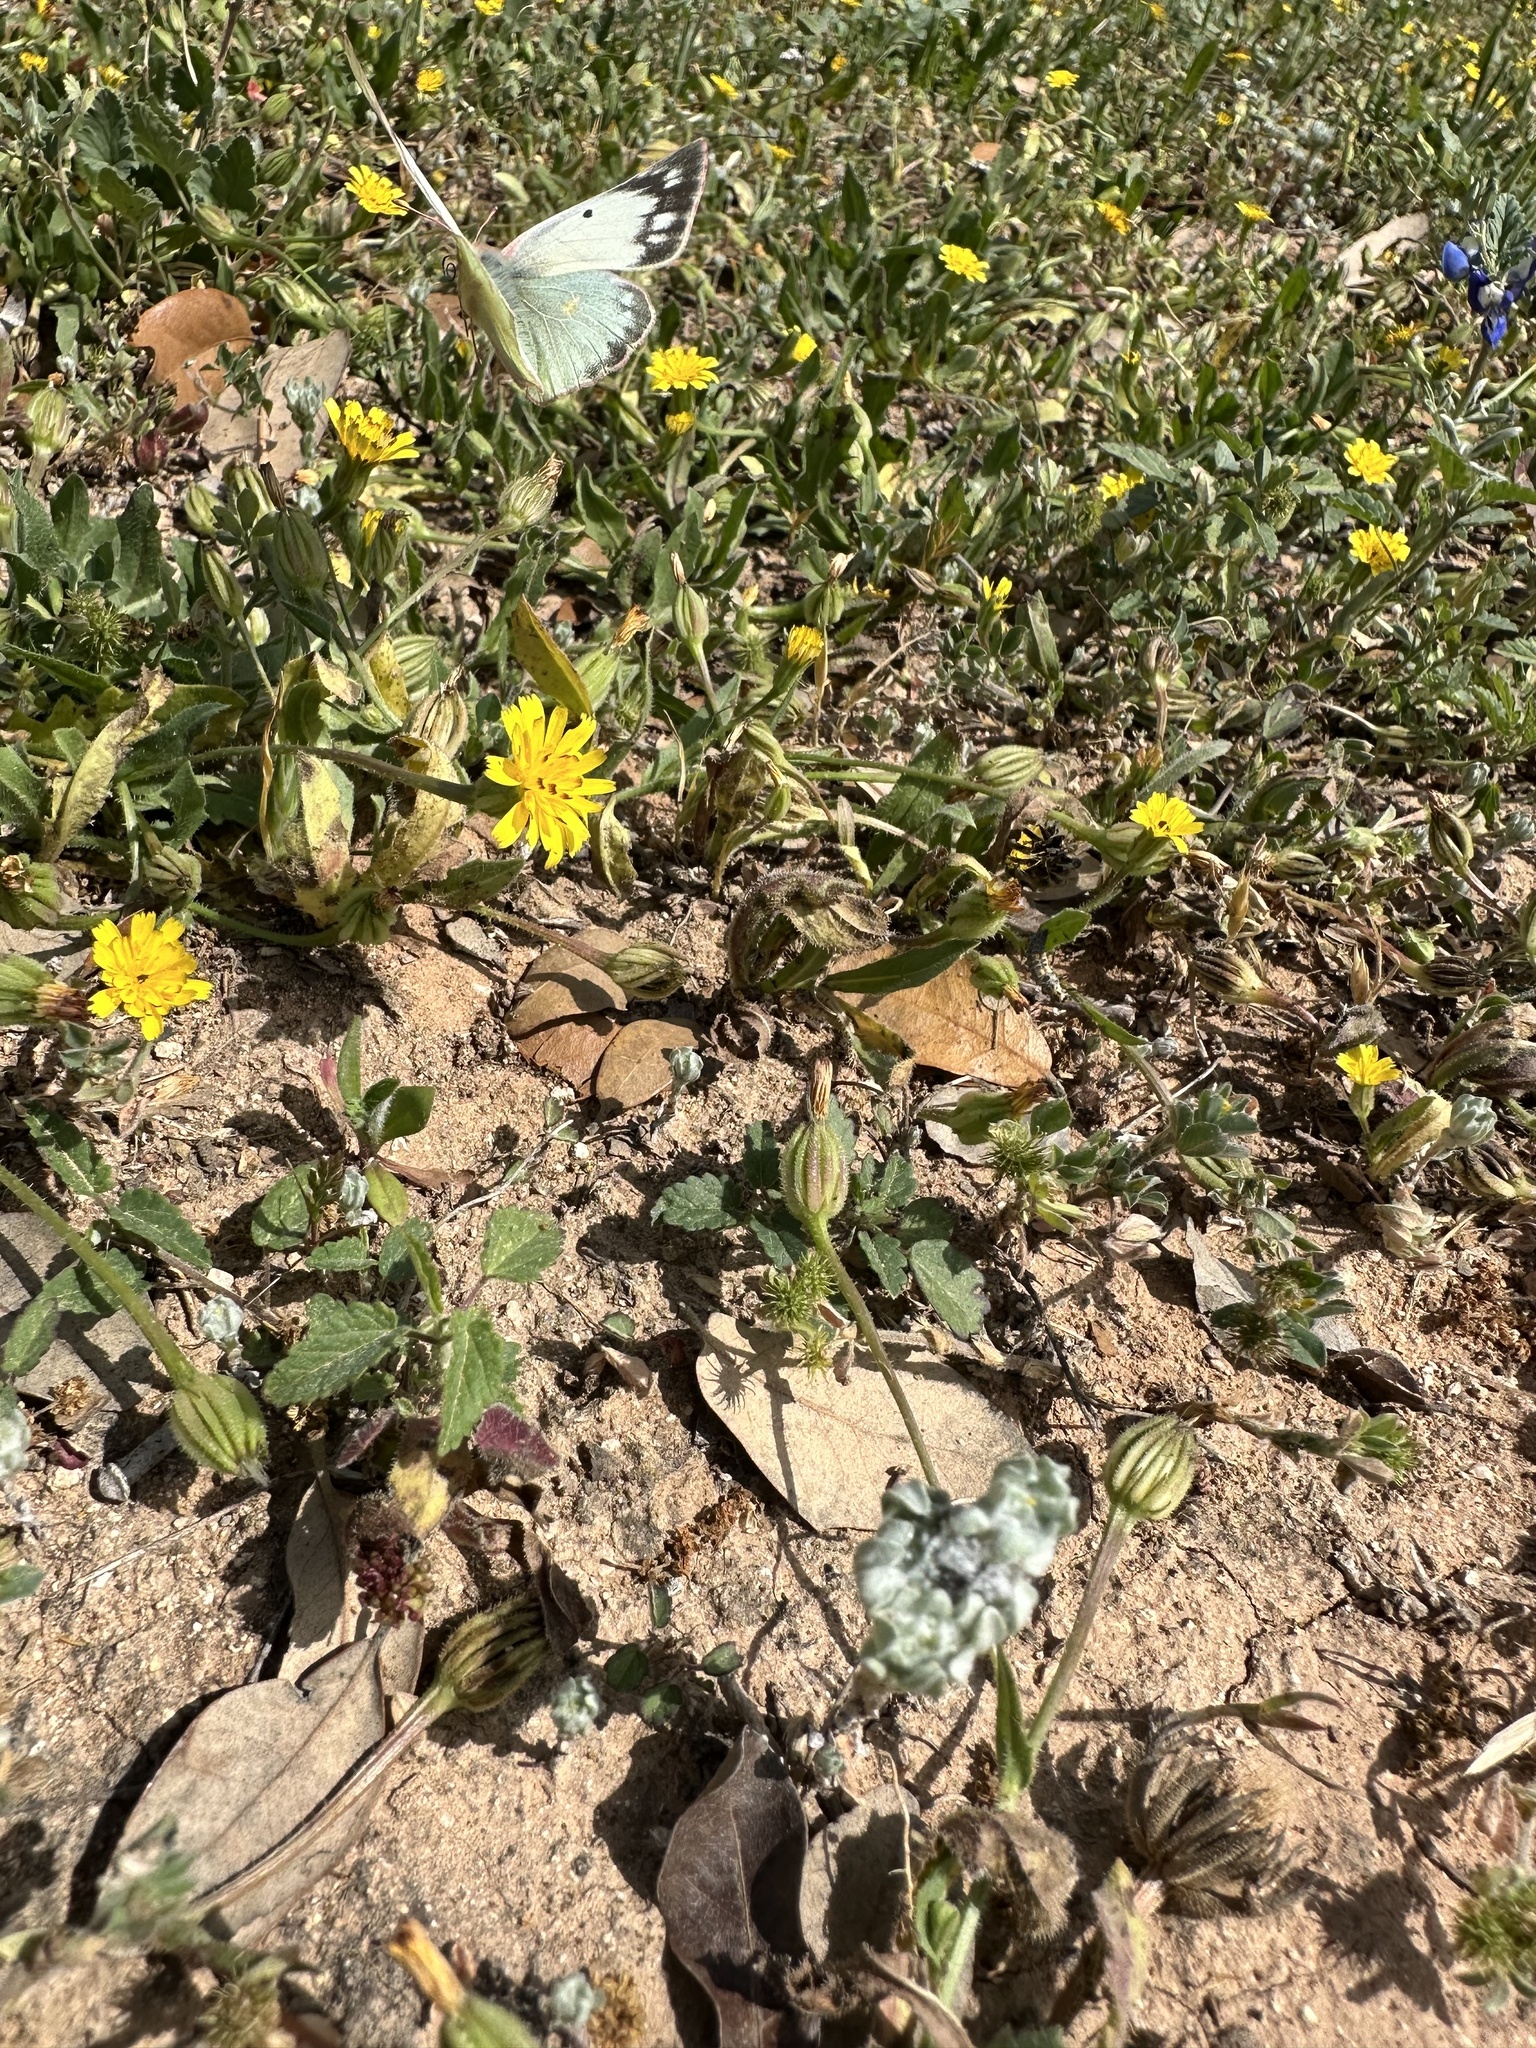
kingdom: Animalia
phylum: Arthropoda
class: Insecta
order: Lepidoptera
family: Pieridae
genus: Colias
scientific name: Colias eurytheme
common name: Alfalfa butterfly
